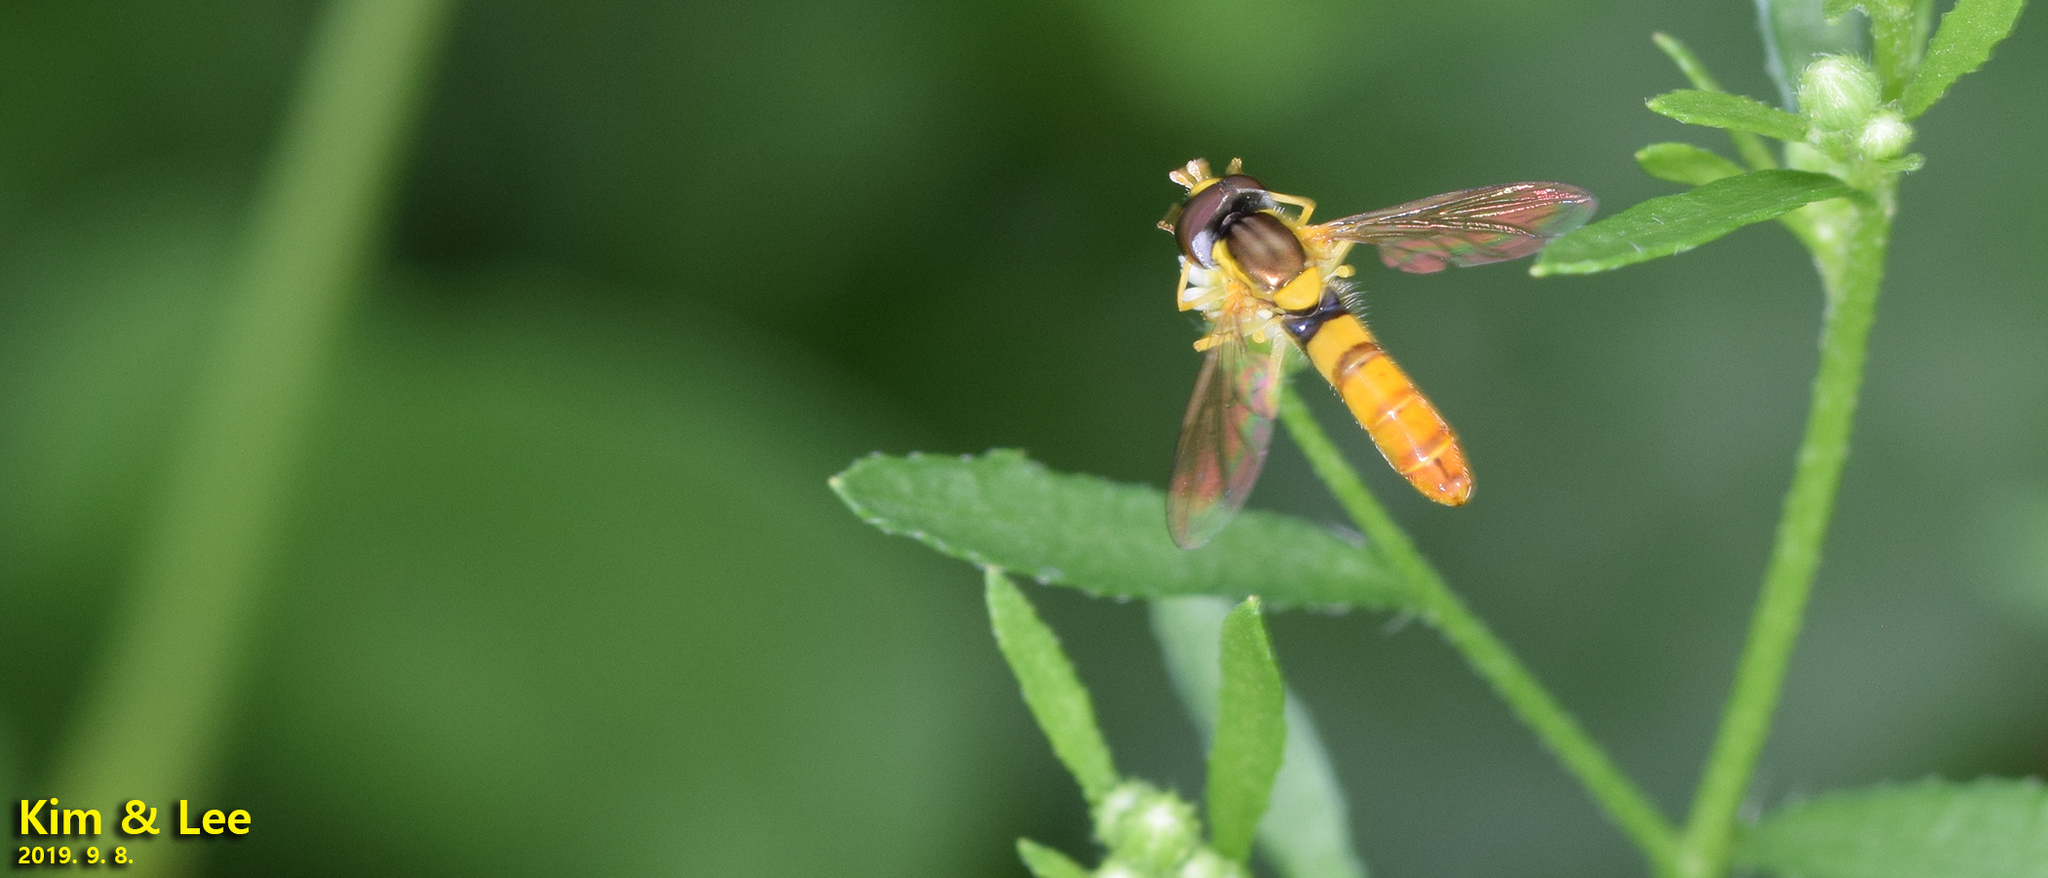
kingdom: Animalia
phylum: Arthropoda
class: Insecta
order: Diptera
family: Syrphidae
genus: Sphaerophoria
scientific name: Sphaerophoria scripta
